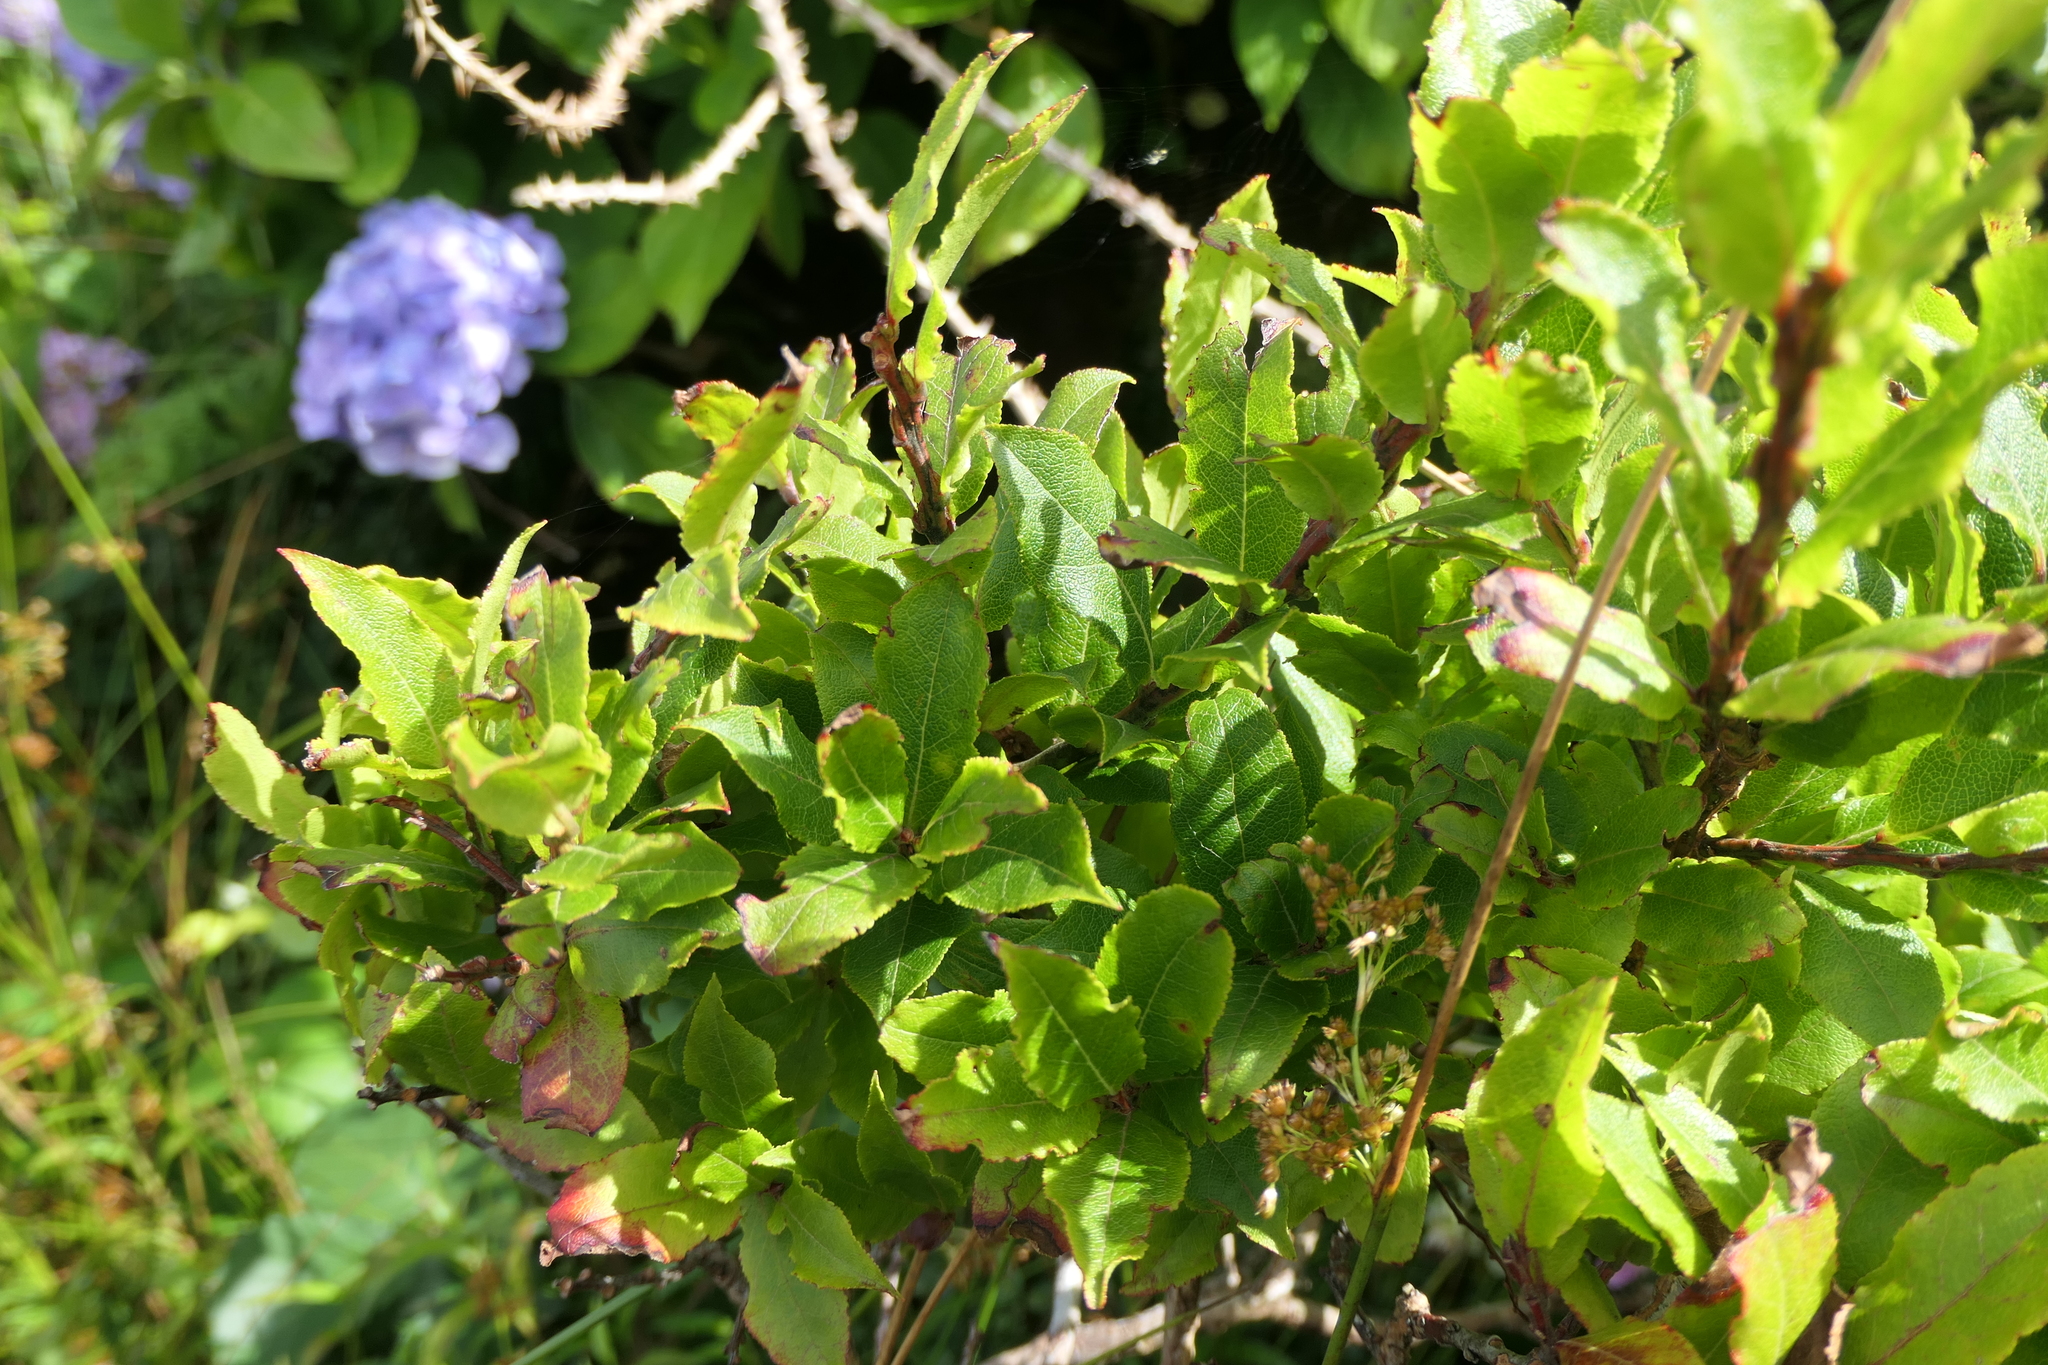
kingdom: Plantae
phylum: Tracheophyta
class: Magnoliopsida
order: Ericales
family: Ericaceae
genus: Vaccinium
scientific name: Vaccinium cylindraceum
